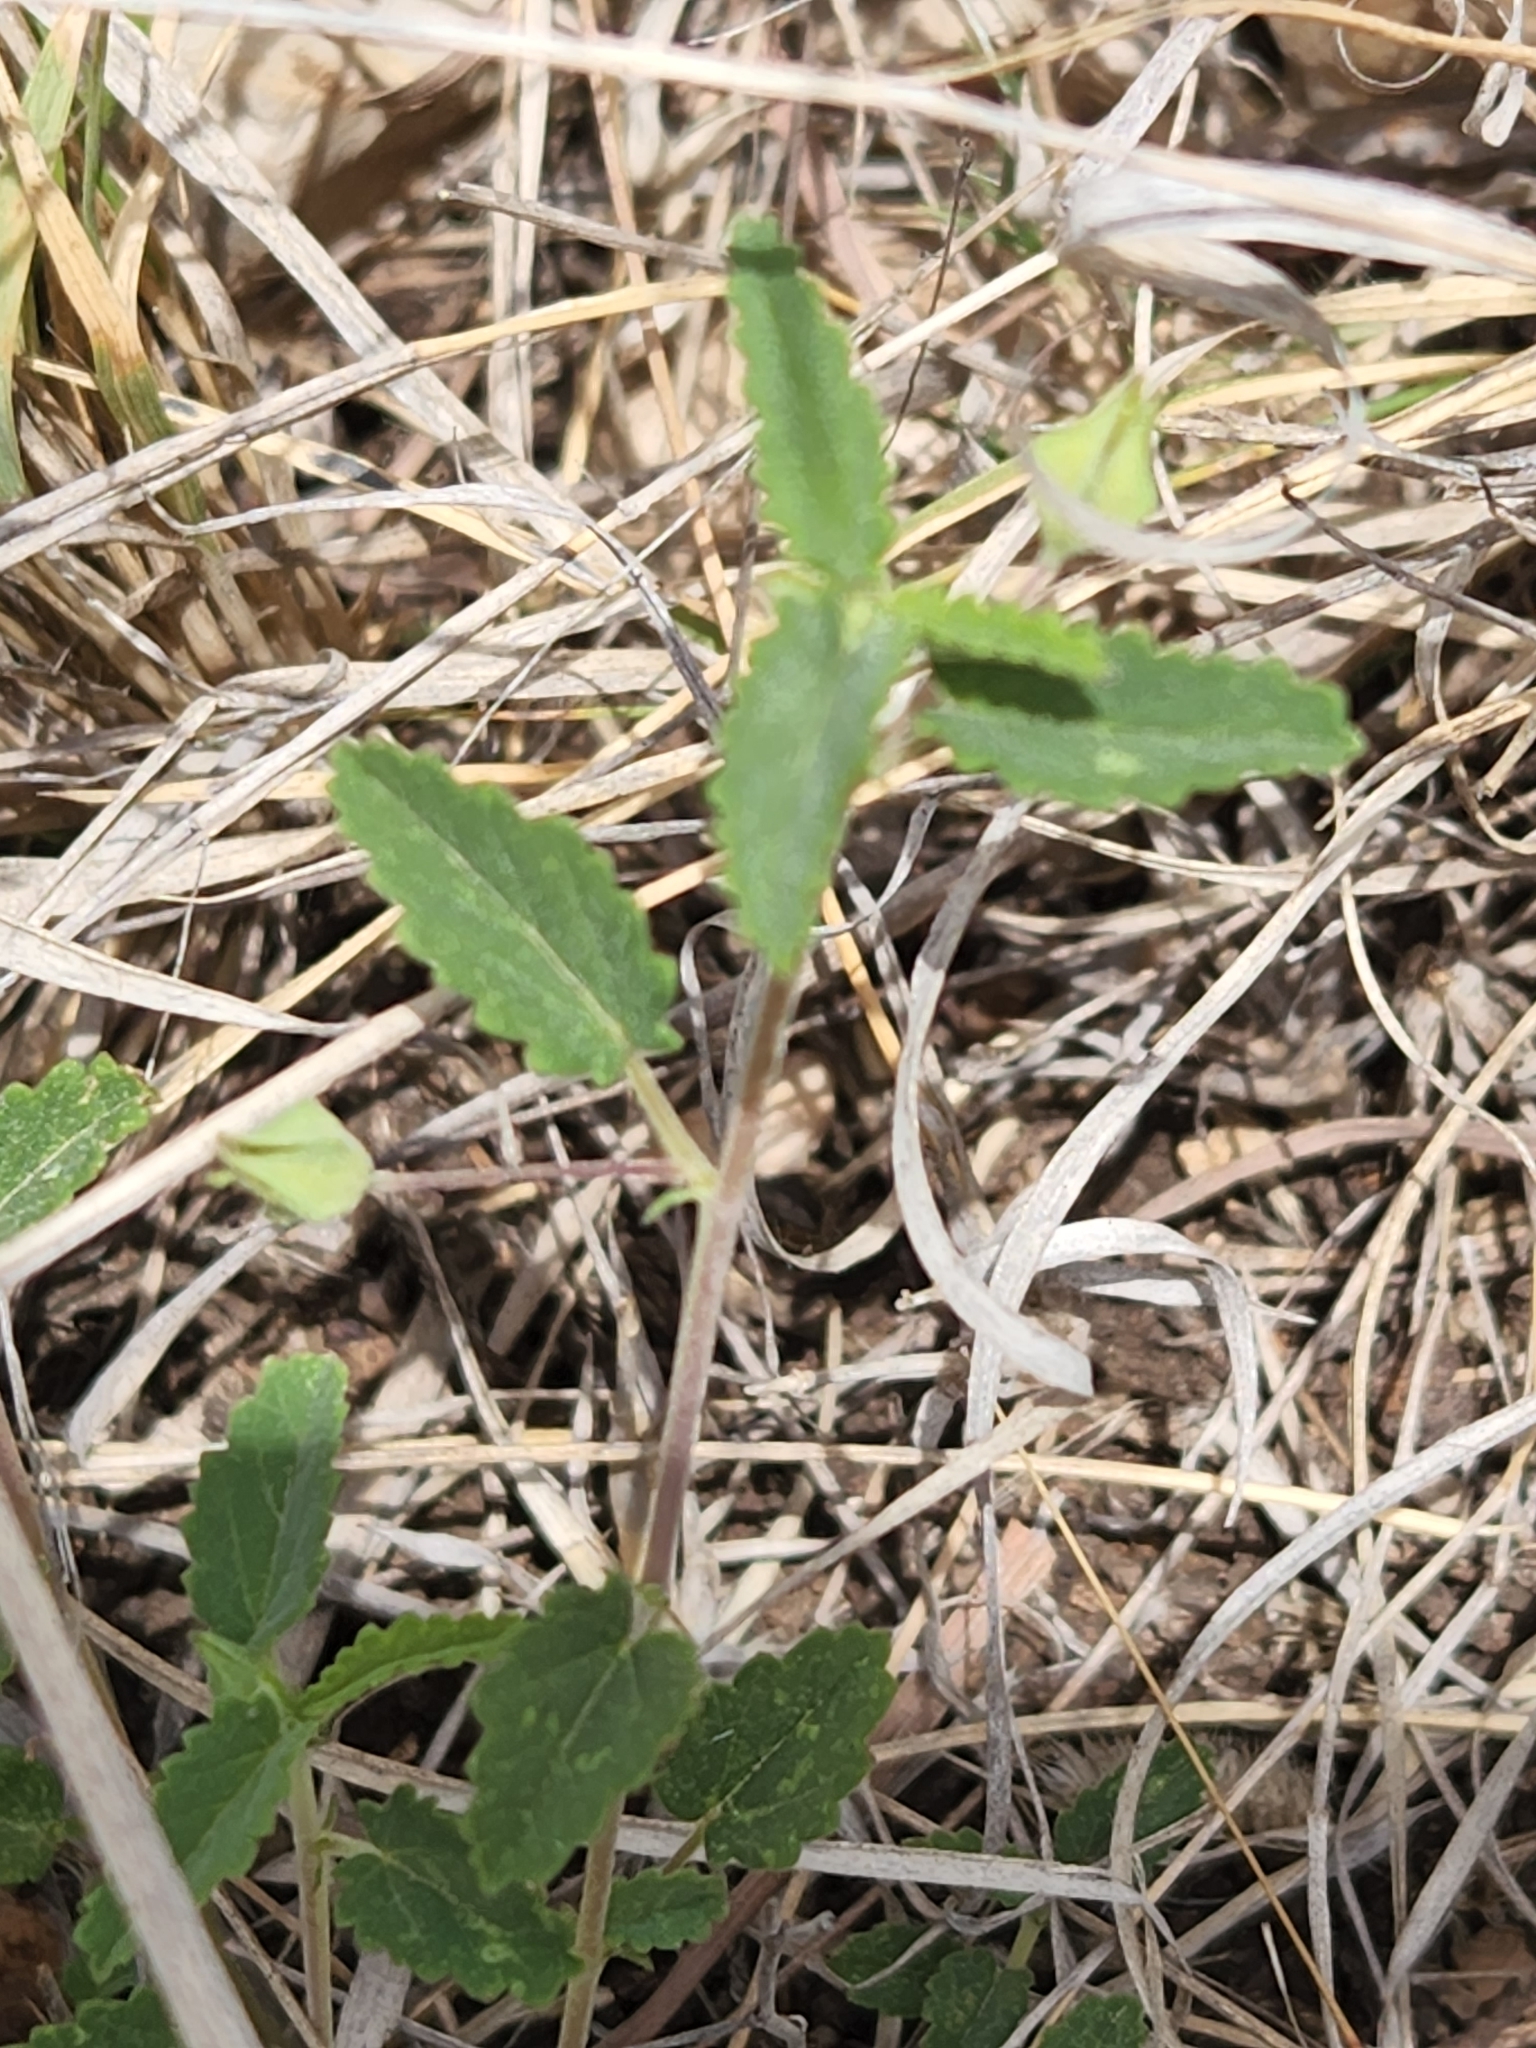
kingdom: Plantae
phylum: Tracheophyta
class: Magnoliopsida
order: Malvales
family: Malvaceae
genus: Sida
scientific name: Sida abutilifolia
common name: Spreading fanpetals
